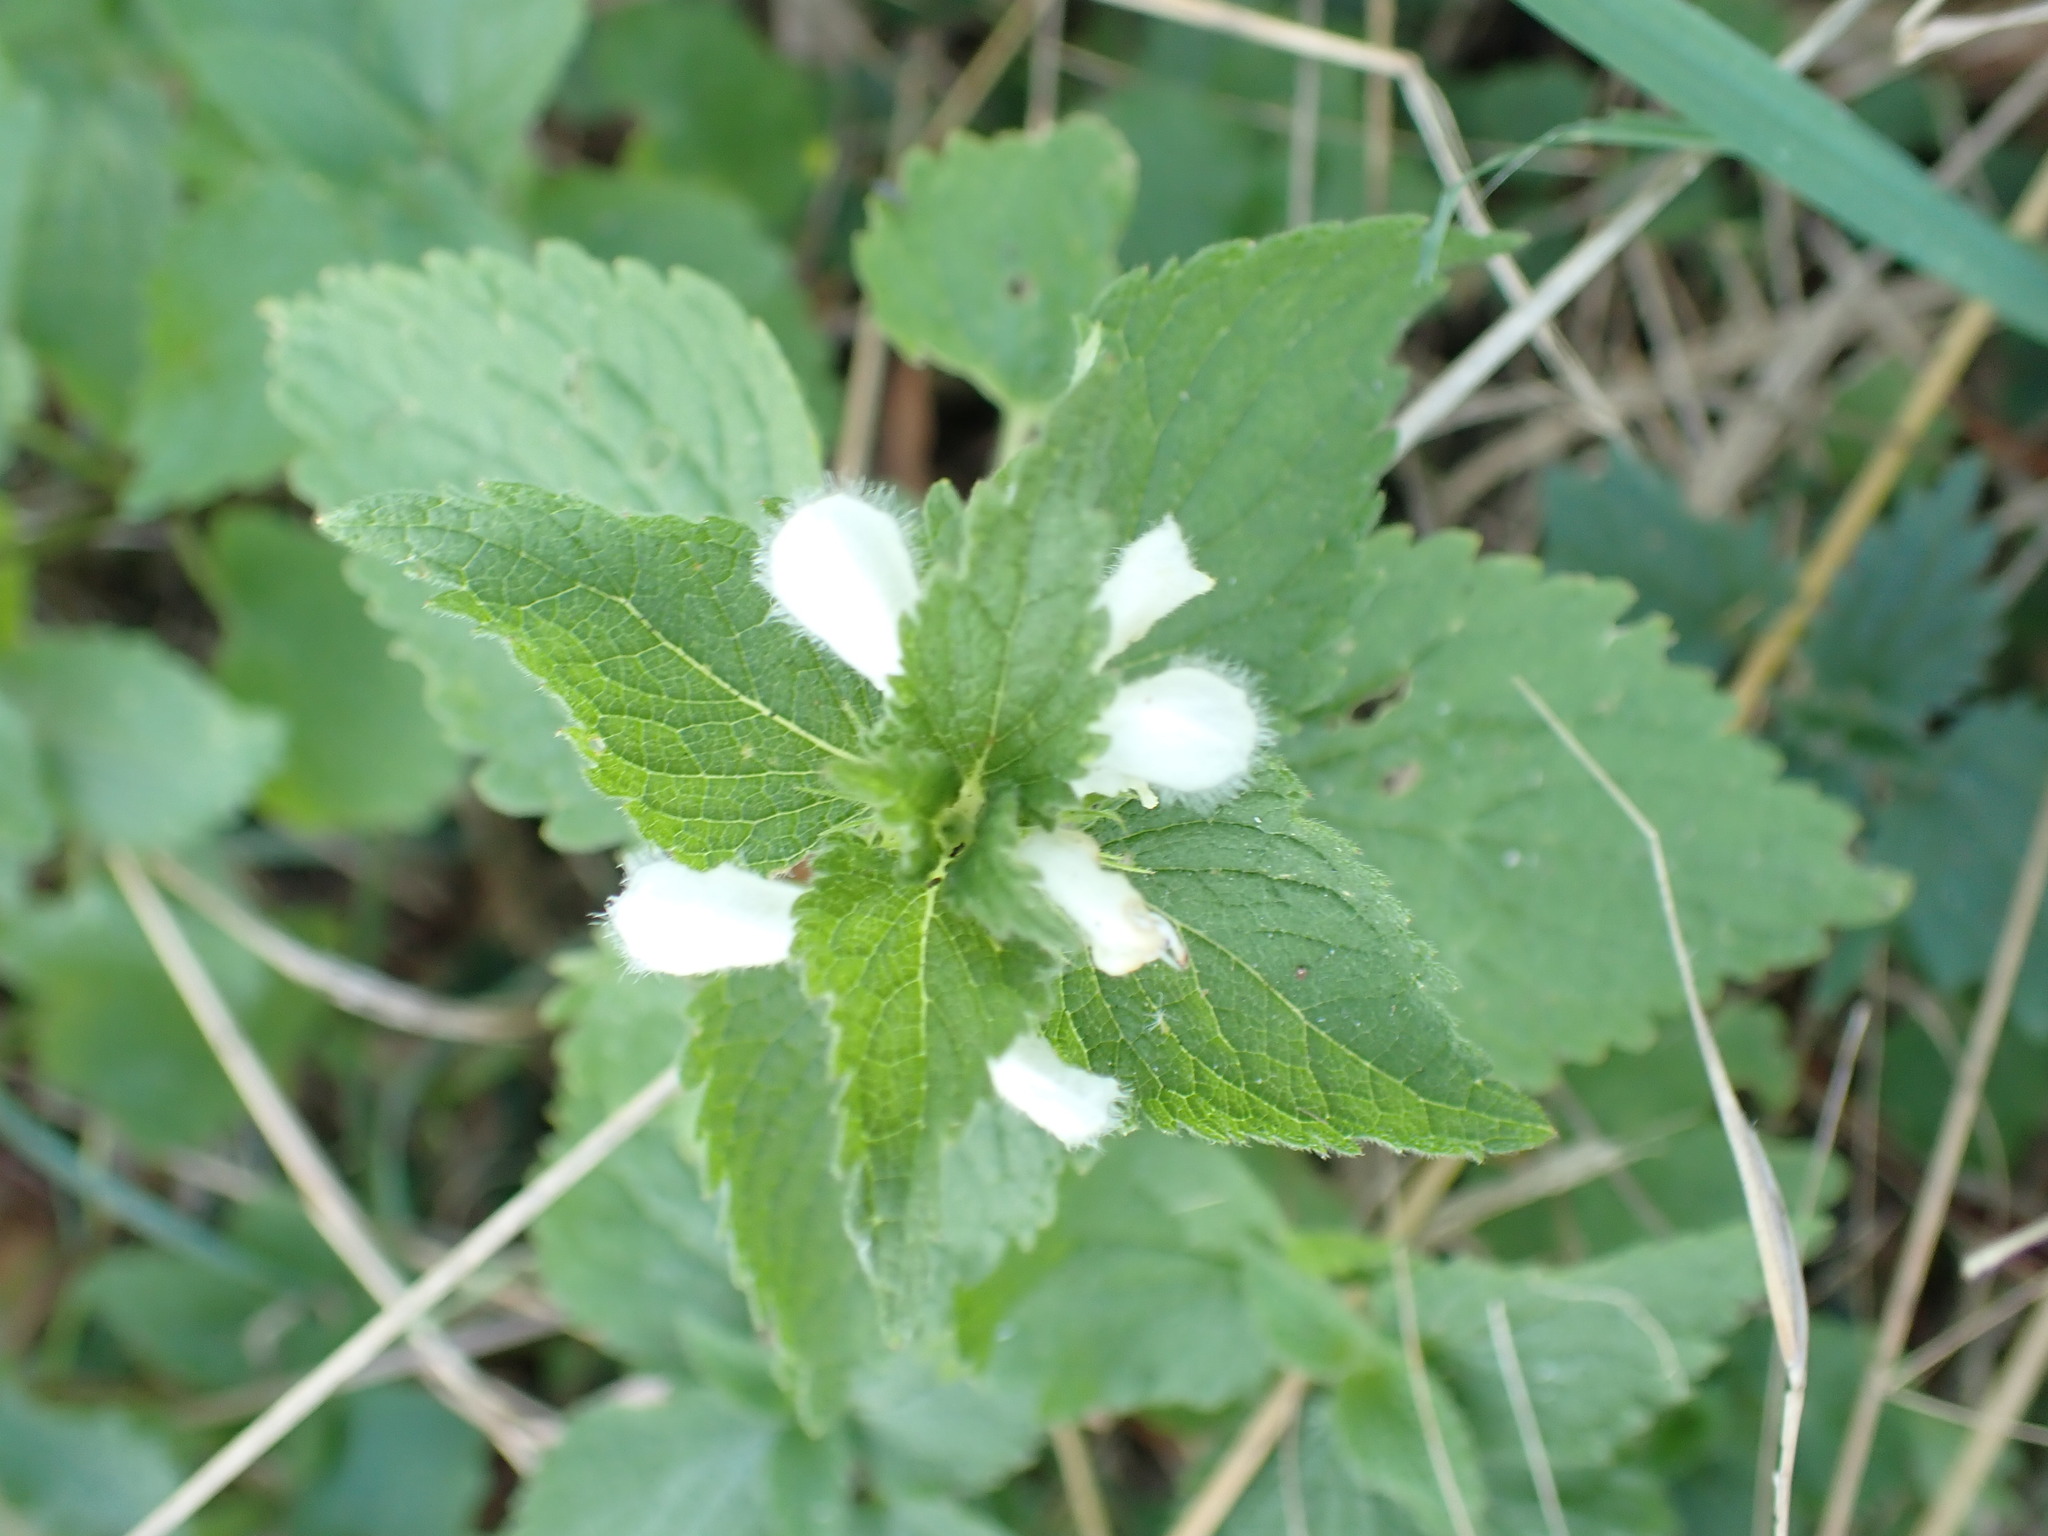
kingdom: Plantae
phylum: Tracheophyta
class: Magnoliopsida
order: Lamiales
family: Lamiaceae
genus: Lamium
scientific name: Lamium album
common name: White dead-nettle
